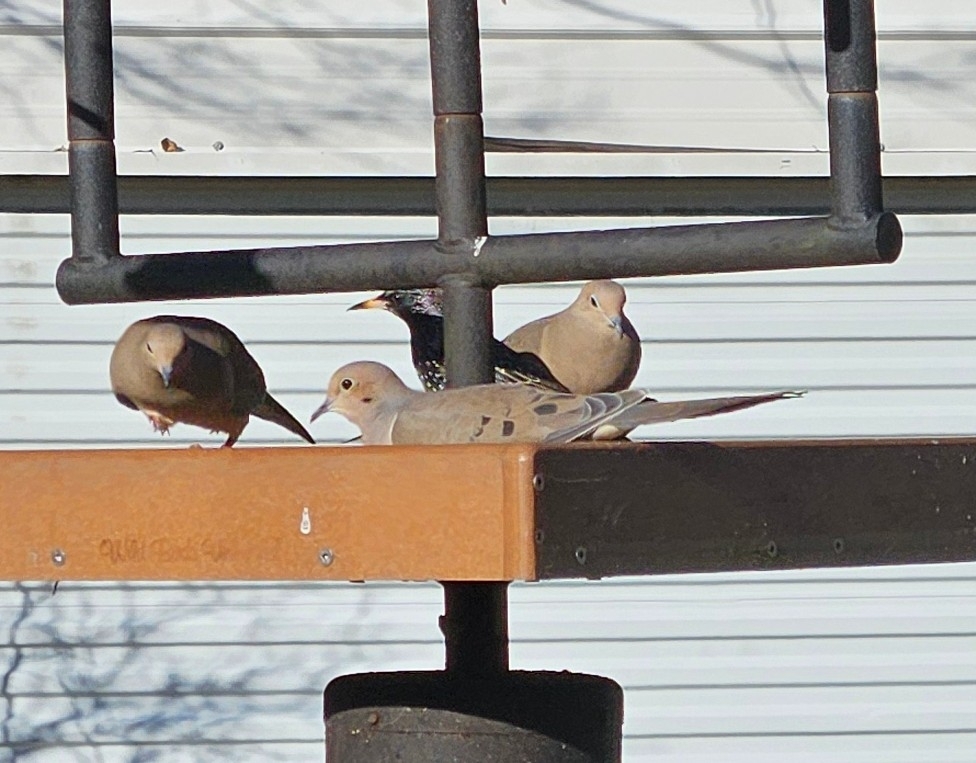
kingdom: Animalia
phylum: Chordata
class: Aves
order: Columbiformes
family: Columbidae
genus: Zenaida
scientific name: Zenaida macroura
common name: Mourning dove
